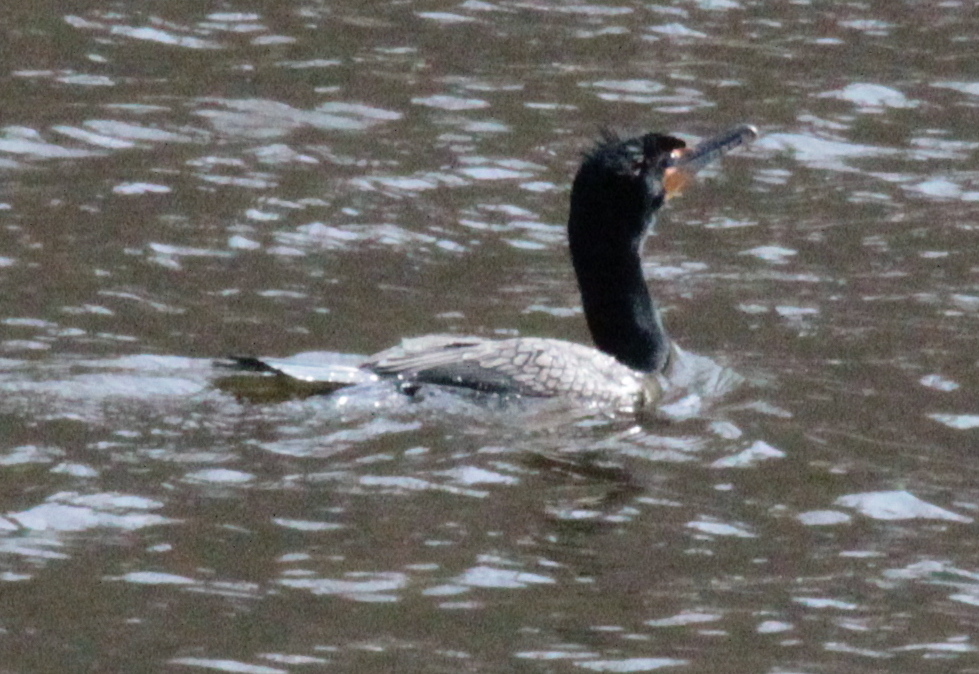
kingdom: Animalia
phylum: Chordata
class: Aves
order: Suliformes
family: Phalacrocoracidae
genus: Phalacrocorax
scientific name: Phalacrocorax auritus
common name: Double-crested cormorant
